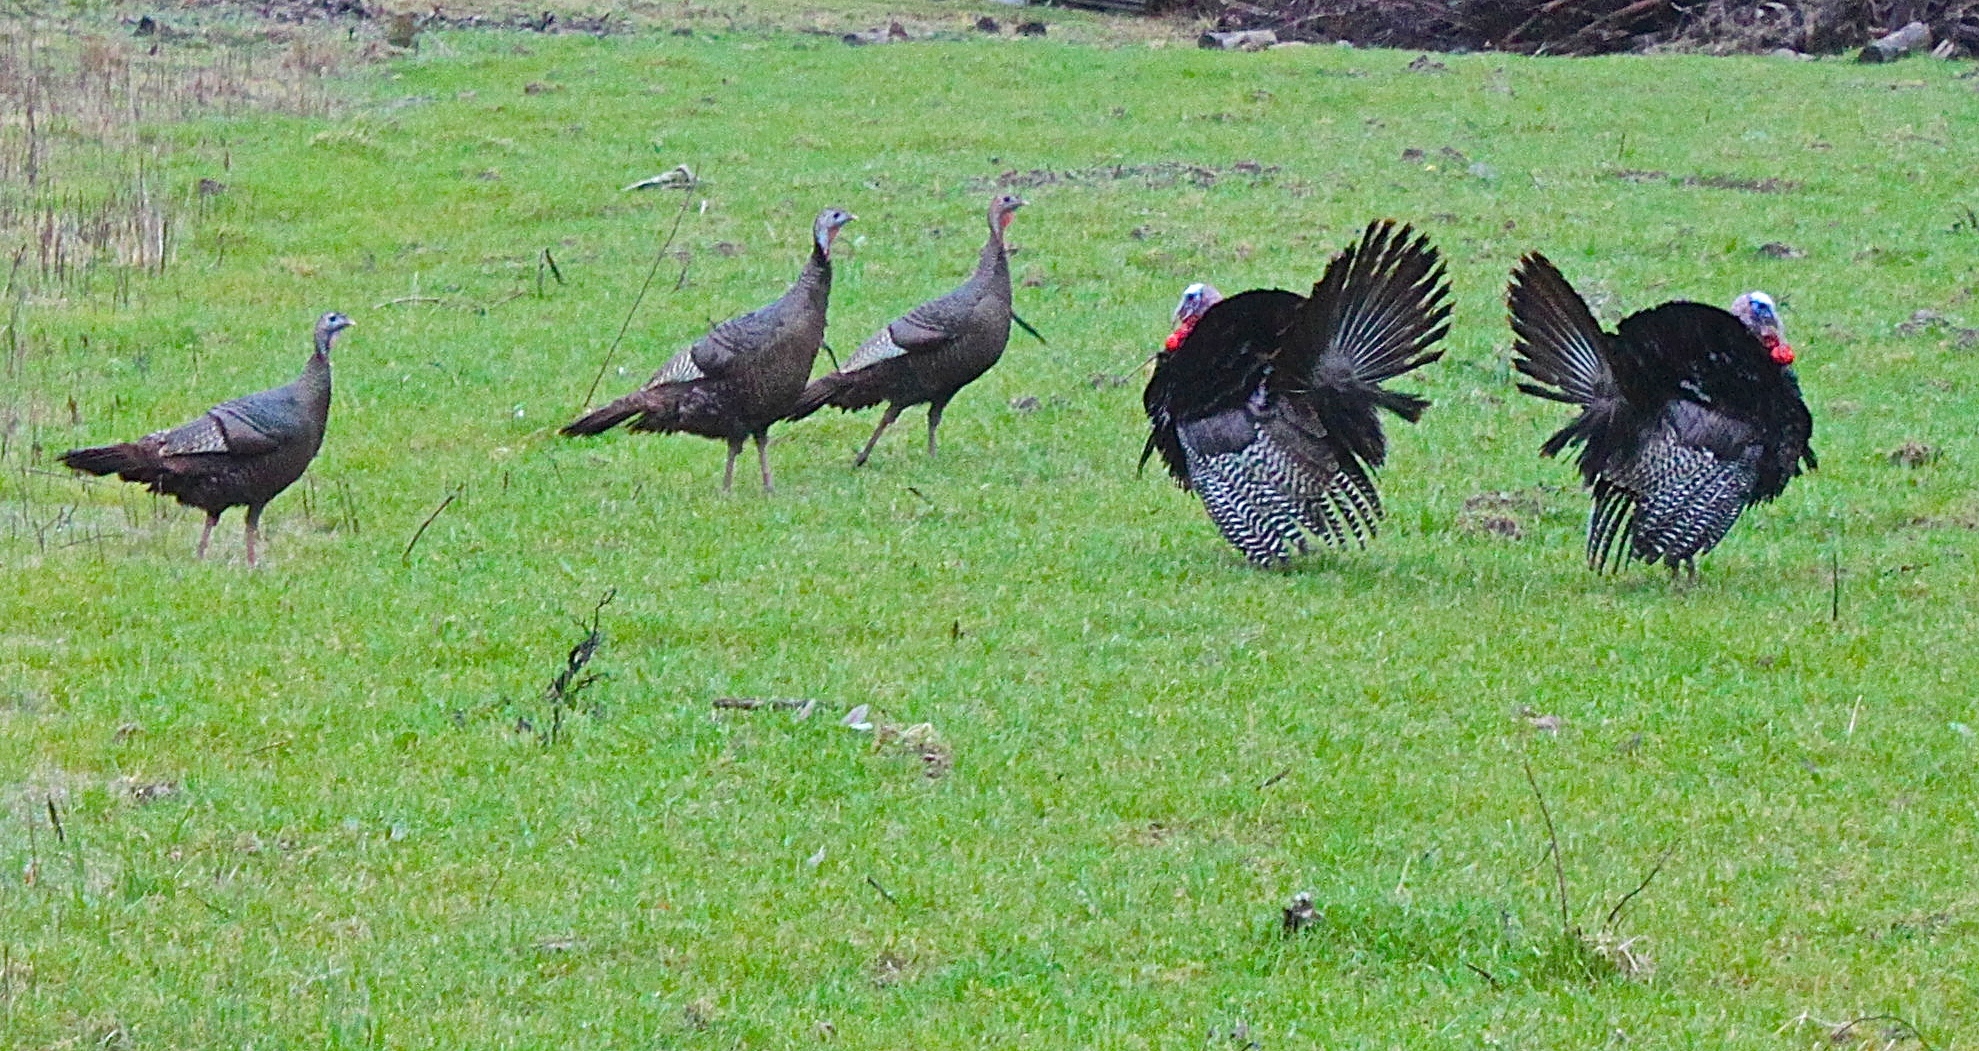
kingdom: Animalia
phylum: Chordata
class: Aves
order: Galliformes
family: Phasianidae
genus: Meleagris
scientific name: Meleagris gallopavo
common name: Wild turkey
